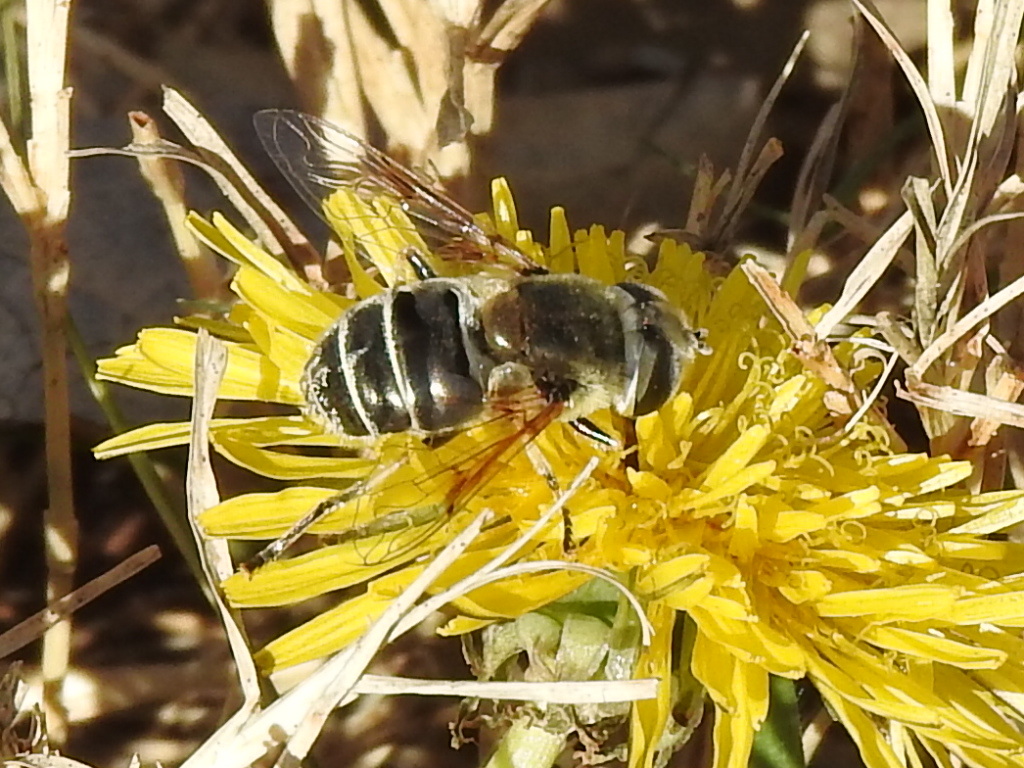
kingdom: Animalia
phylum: Arthropoda
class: Insecta
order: Diptera
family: Syrphidae
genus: Eristalis
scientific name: Eristalis stipator
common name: Yellow-shouldered drone fly
